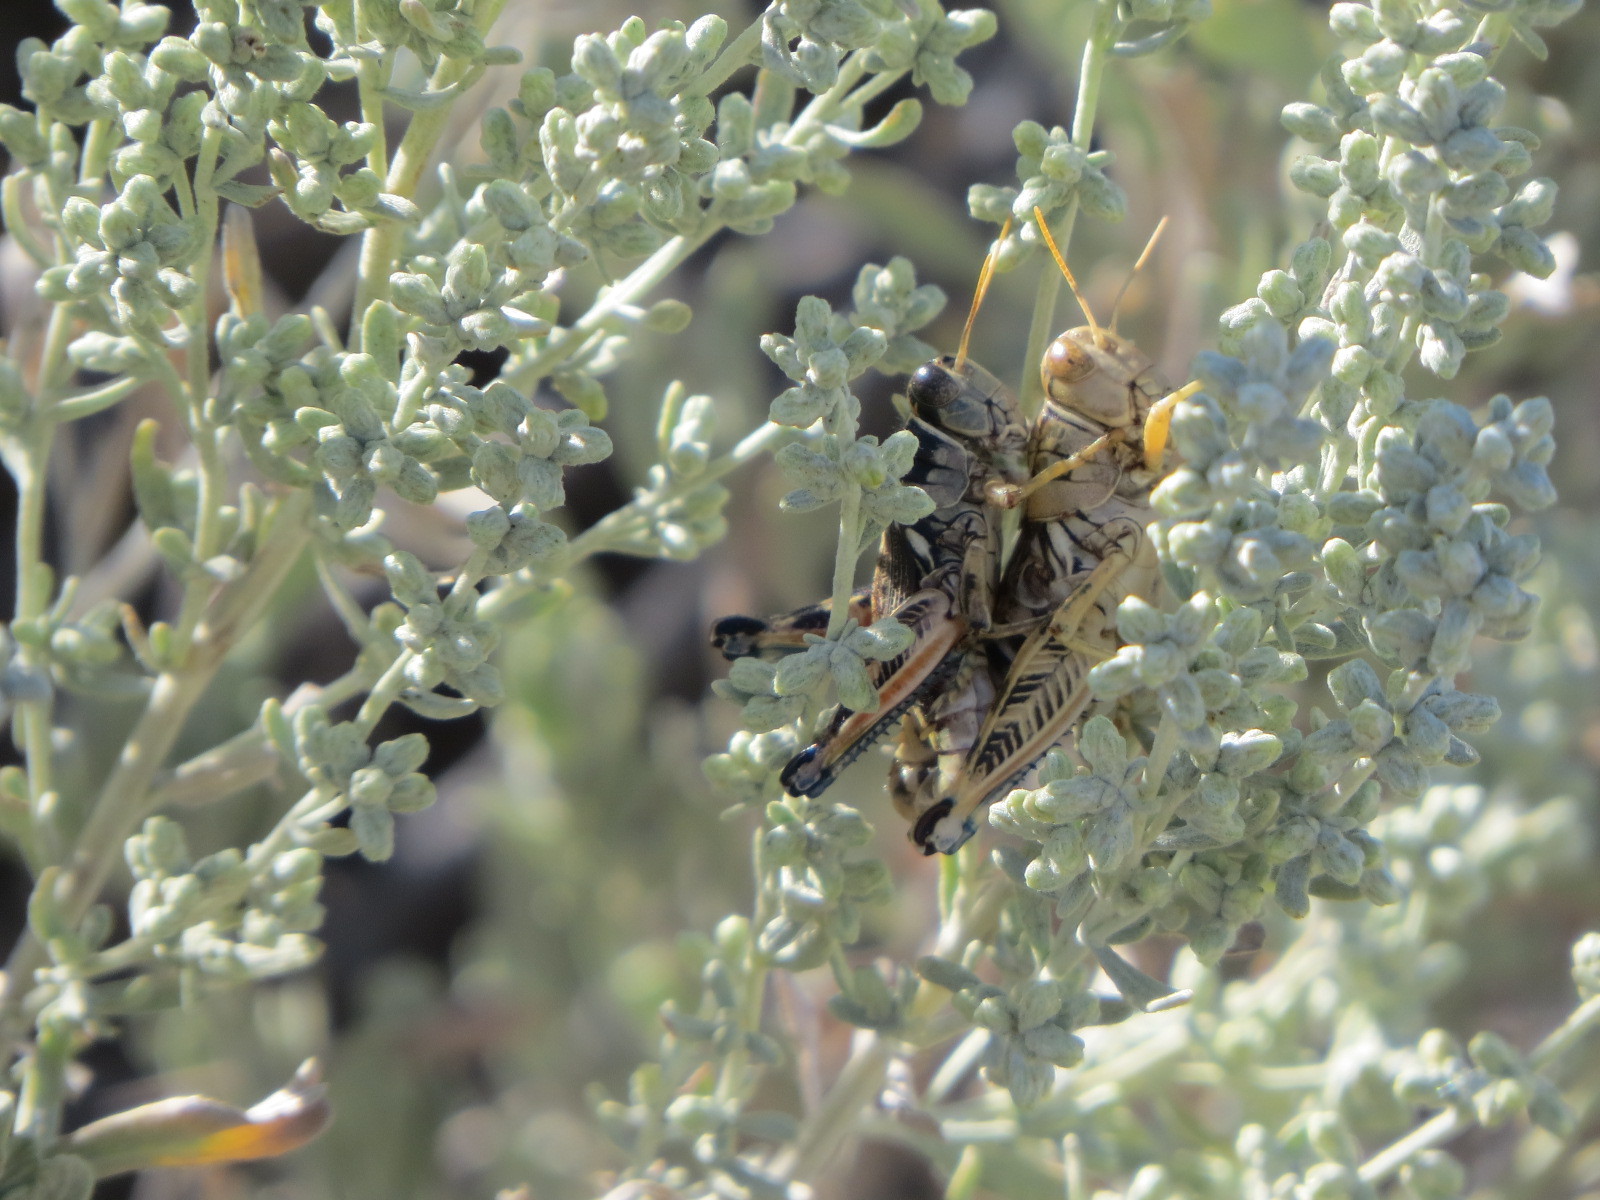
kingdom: Animalia
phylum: Arthropoda
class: Insecta
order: Orthoptera
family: Acrididae
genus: Oedaleonotus
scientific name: Oedaleonotus enigma
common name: Valley grasshopper
